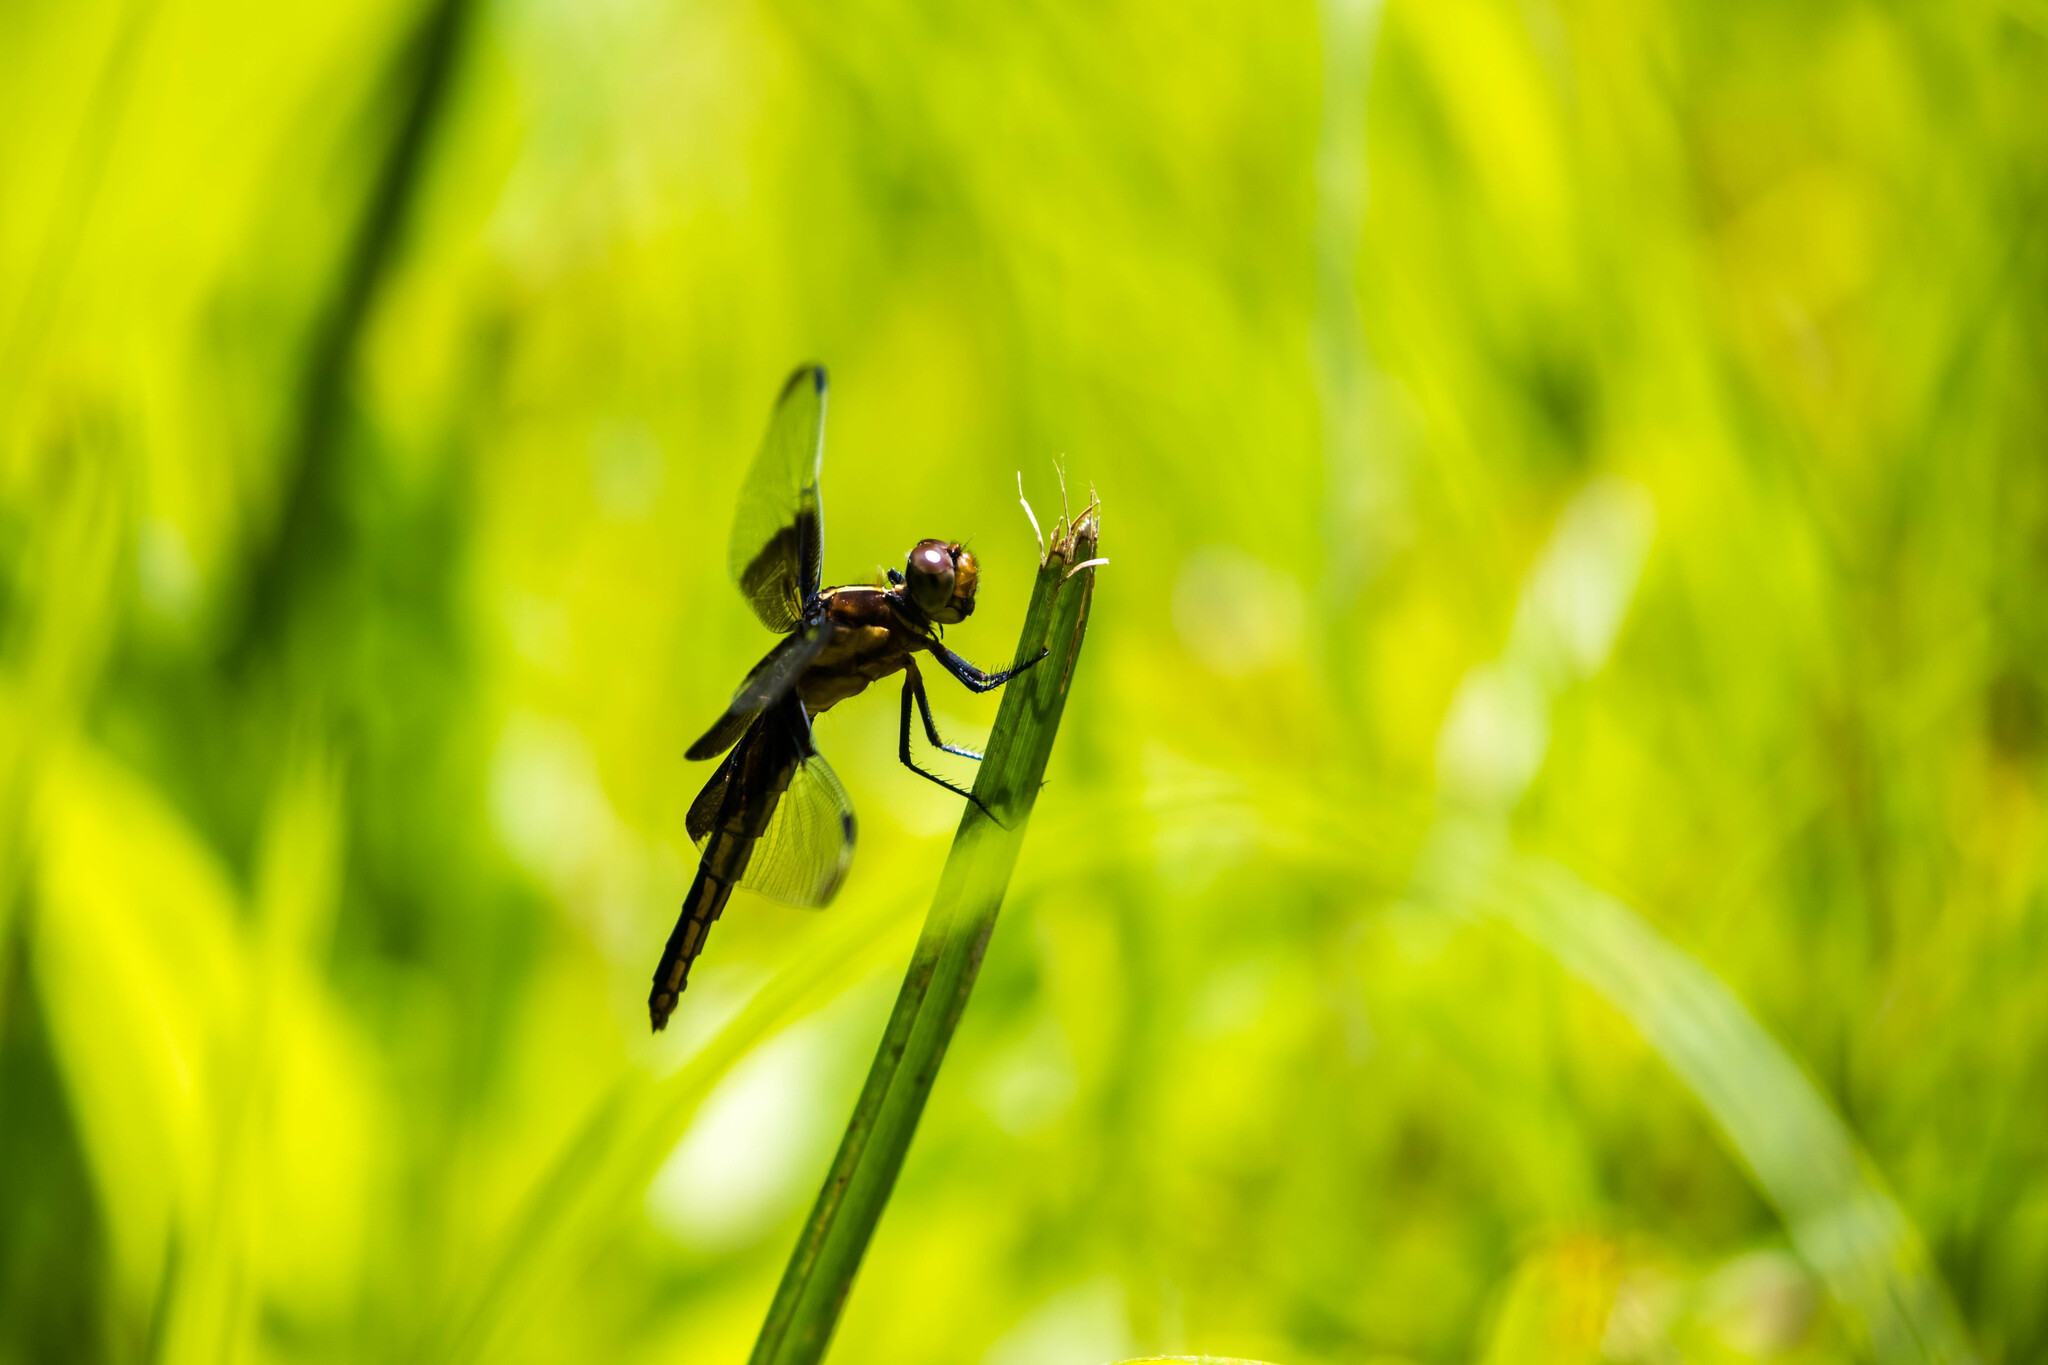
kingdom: Animalia
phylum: Arthropoda
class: Insecta
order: Odonata
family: Libellulidae
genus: Libellula
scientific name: Libellula luctuosa
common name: Widow skimmer
